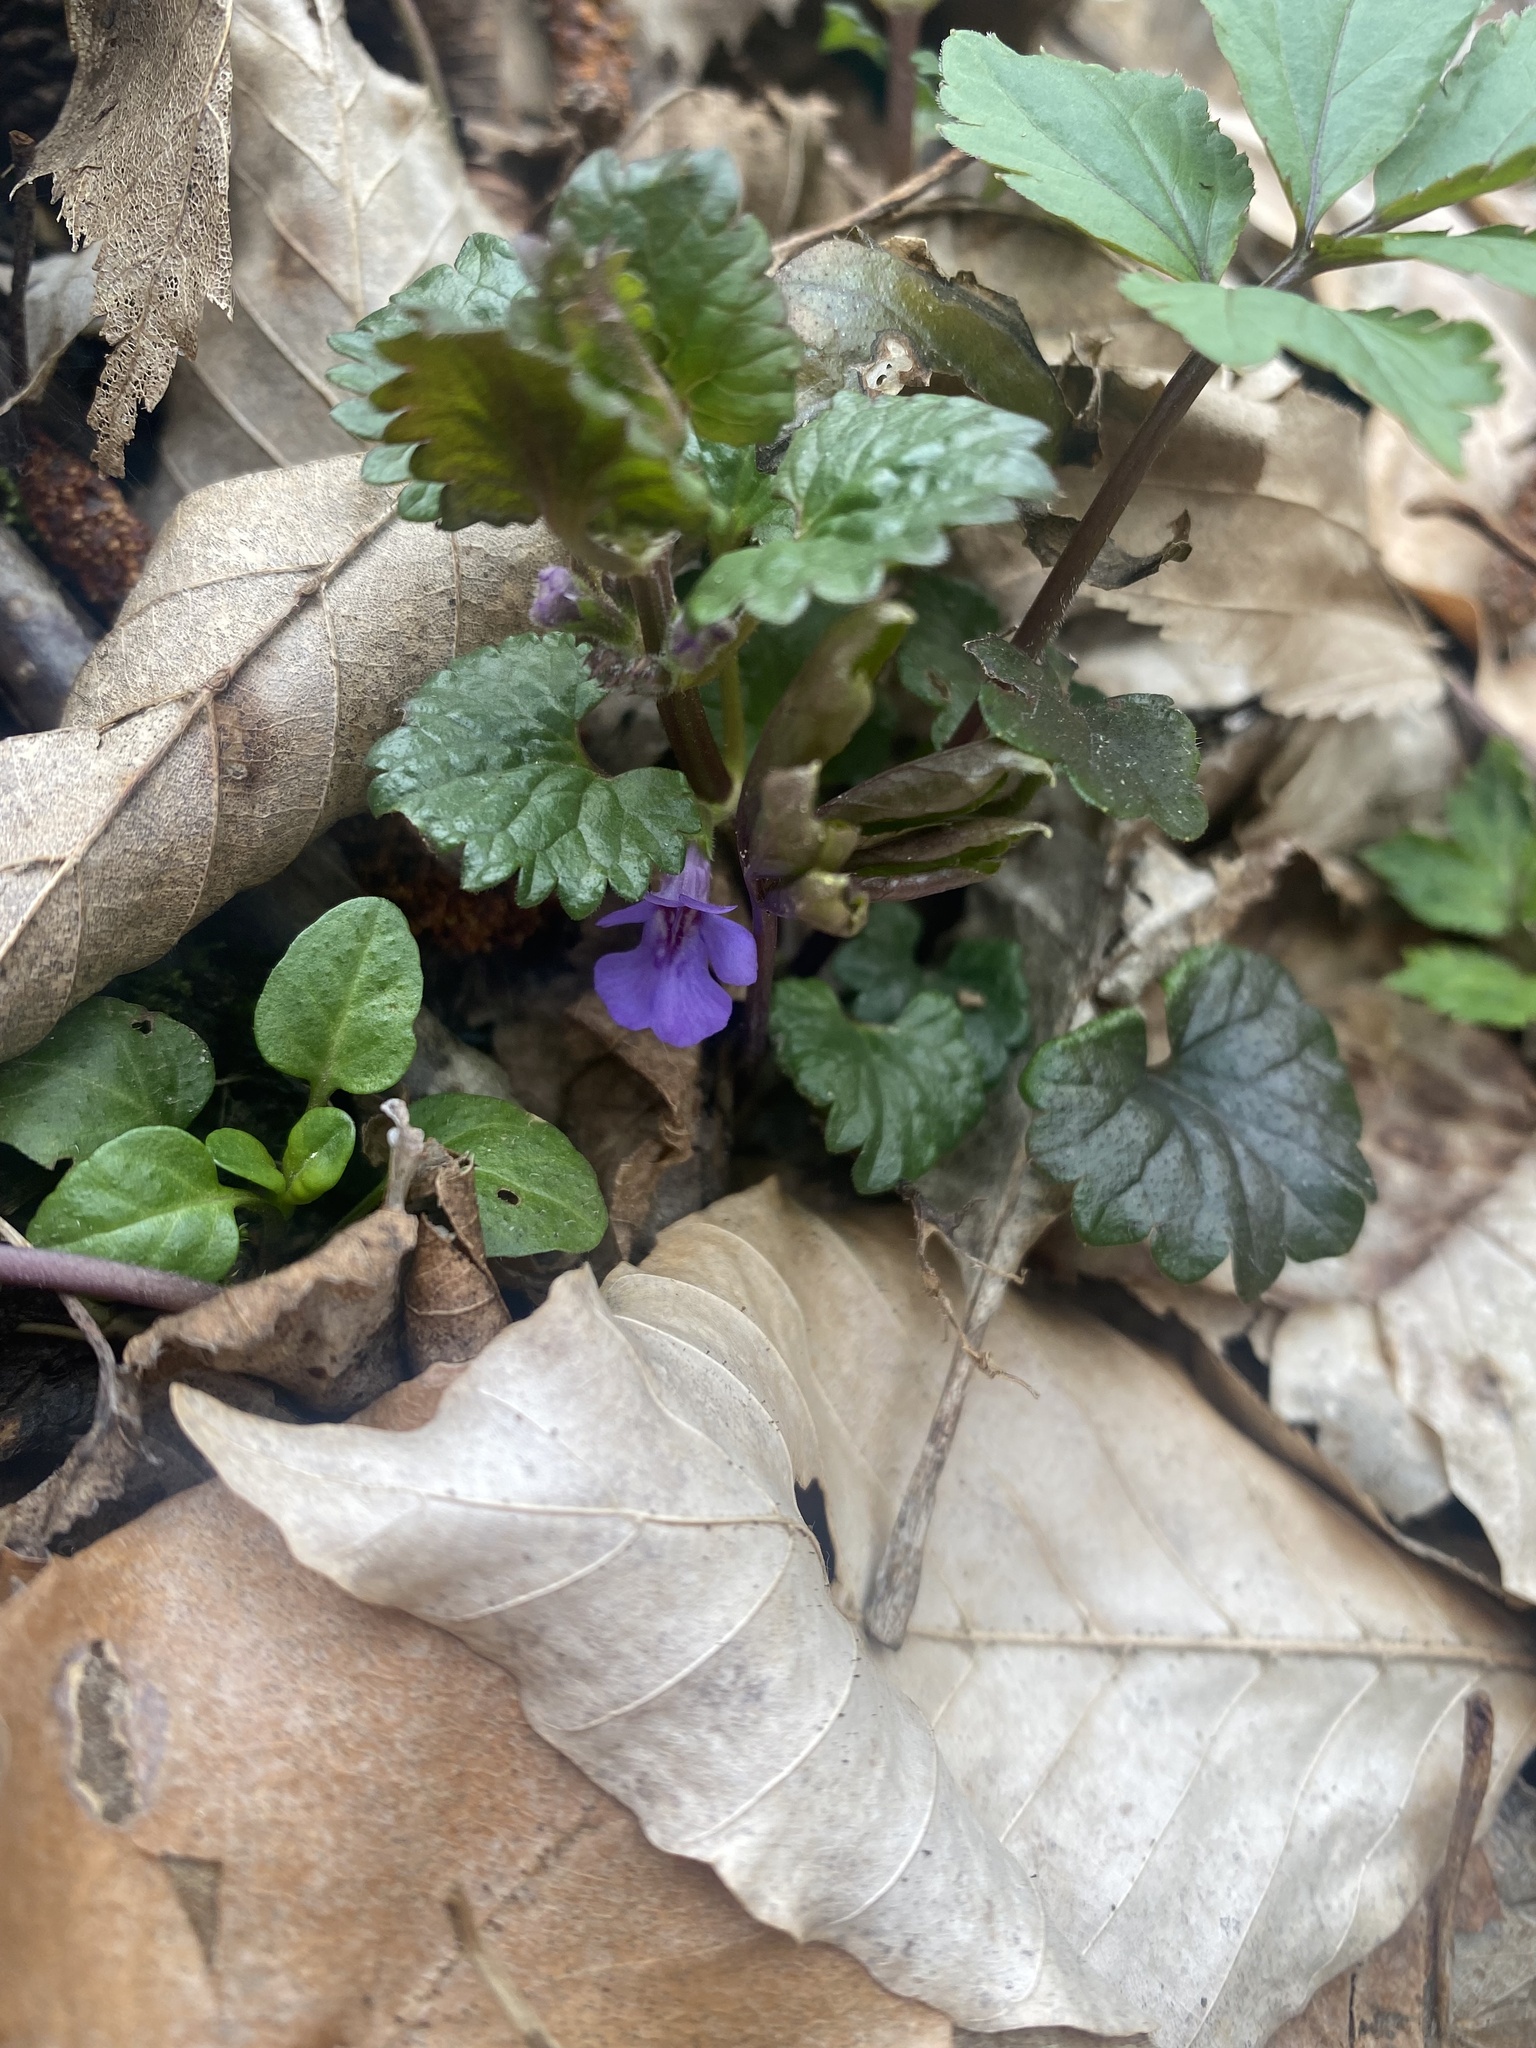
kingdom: Plantae
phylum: Tracheophyta
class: Magnoliopsida
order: Lamiales
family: Lamiaceae
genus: Glechoma
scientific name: Glechoma hederacea
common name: Ground ivy
